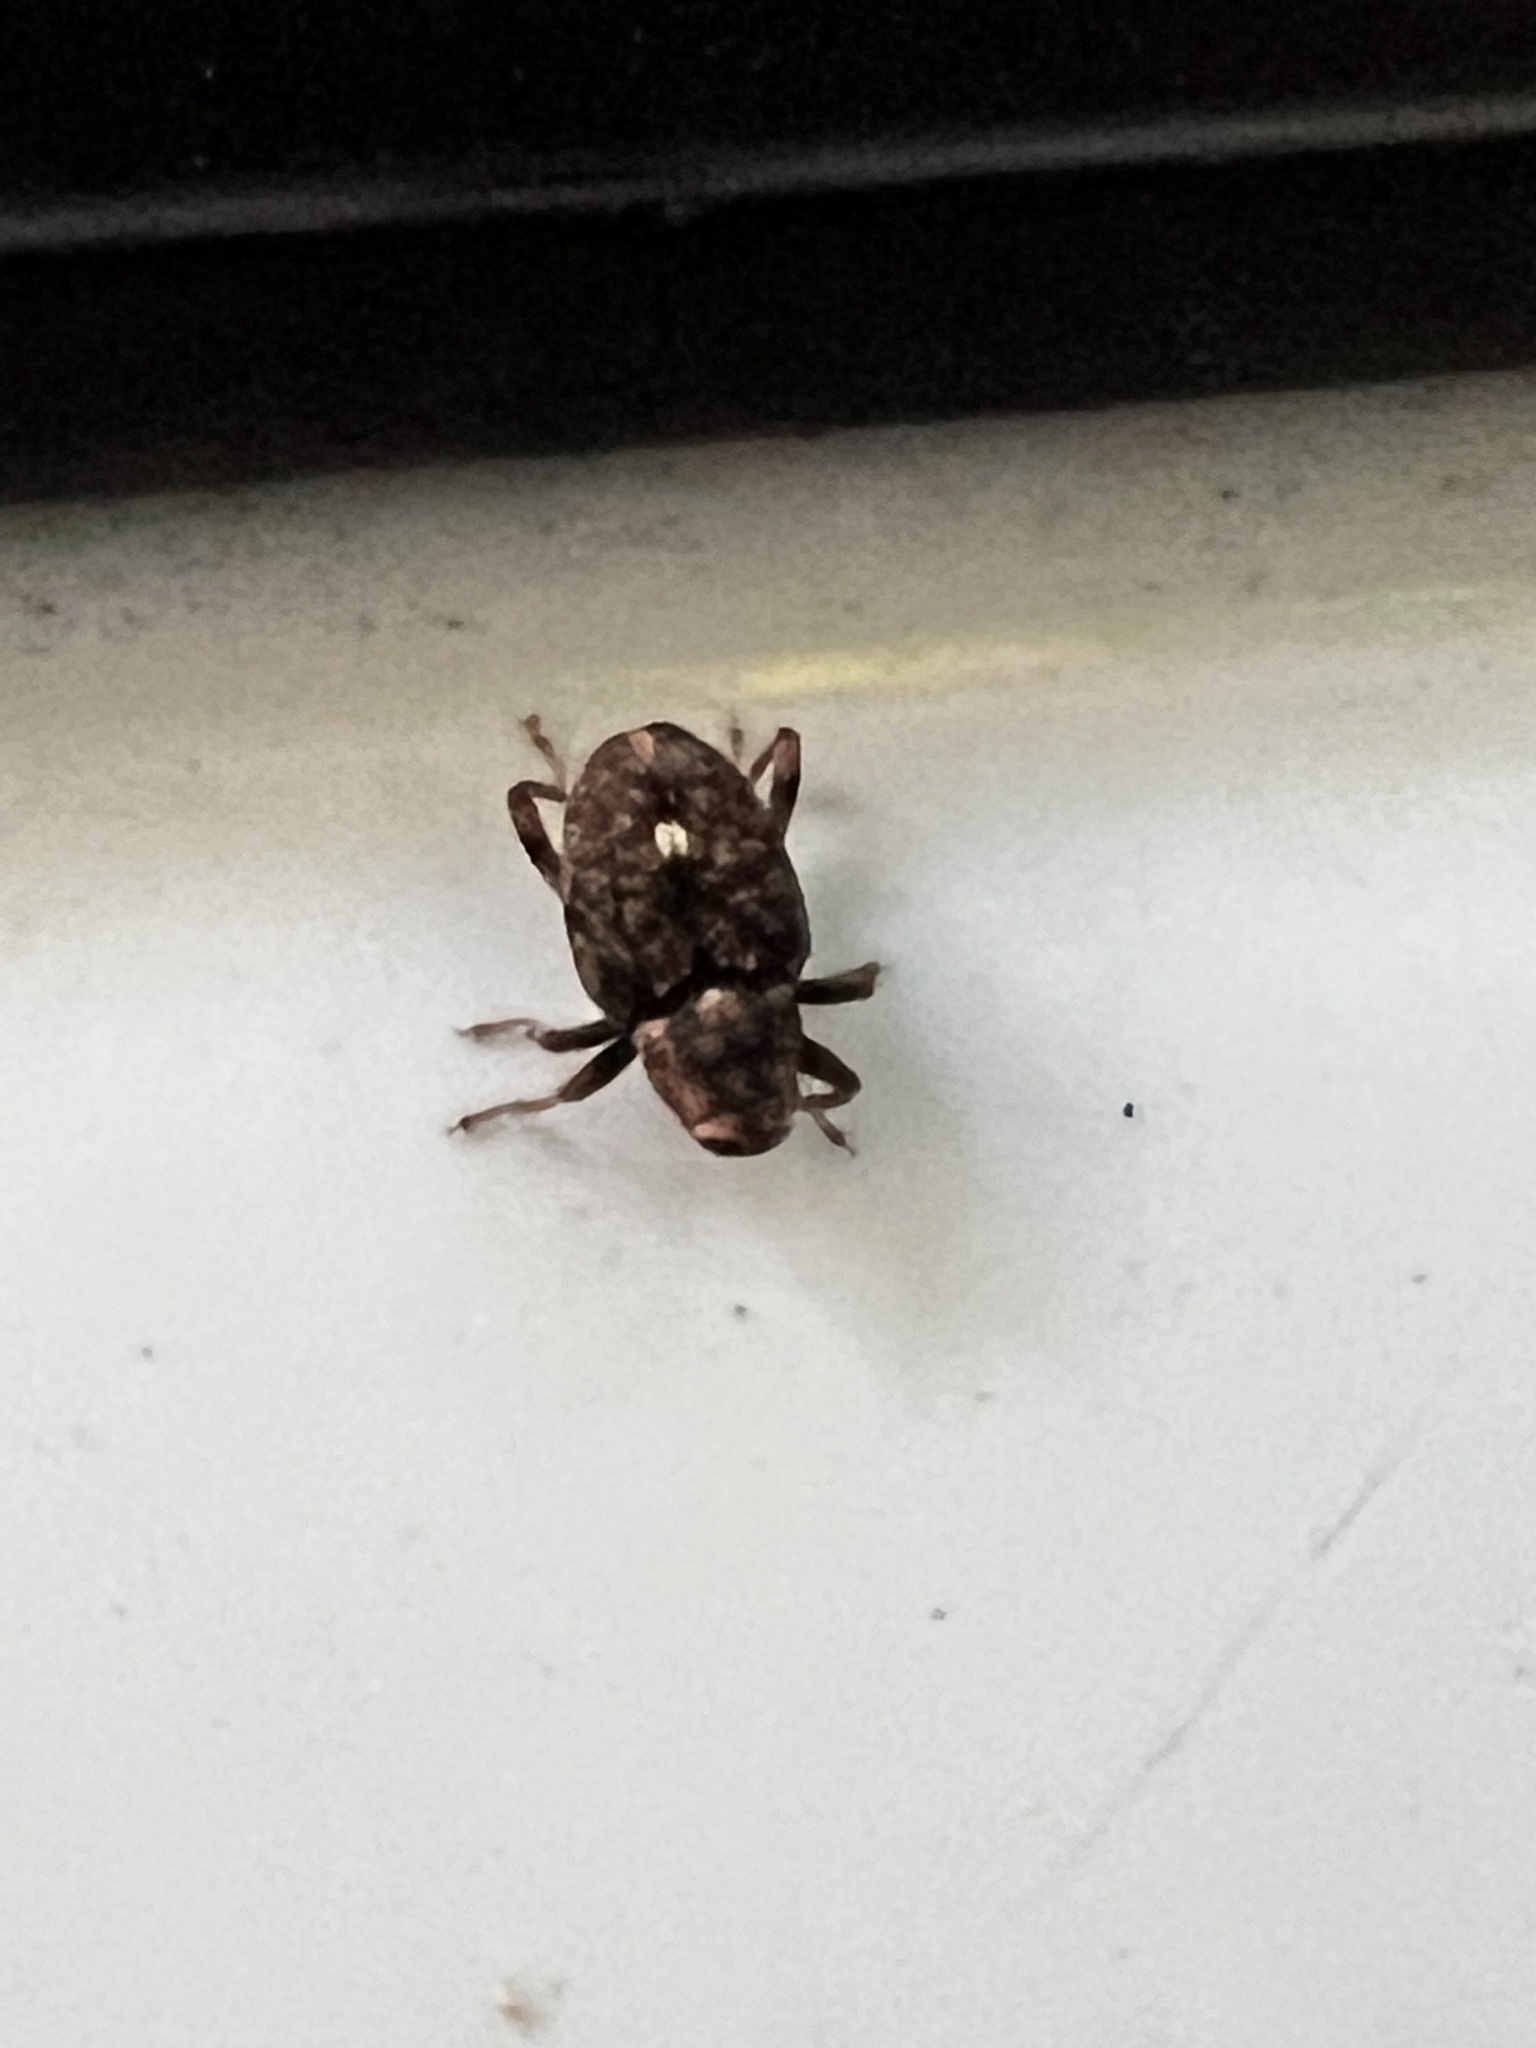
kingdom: Animalia
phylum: Arthropoda
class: Insecta
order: Coleoptera
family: Curculionidae
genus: Lechriops
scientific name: Lechriops oculatus
